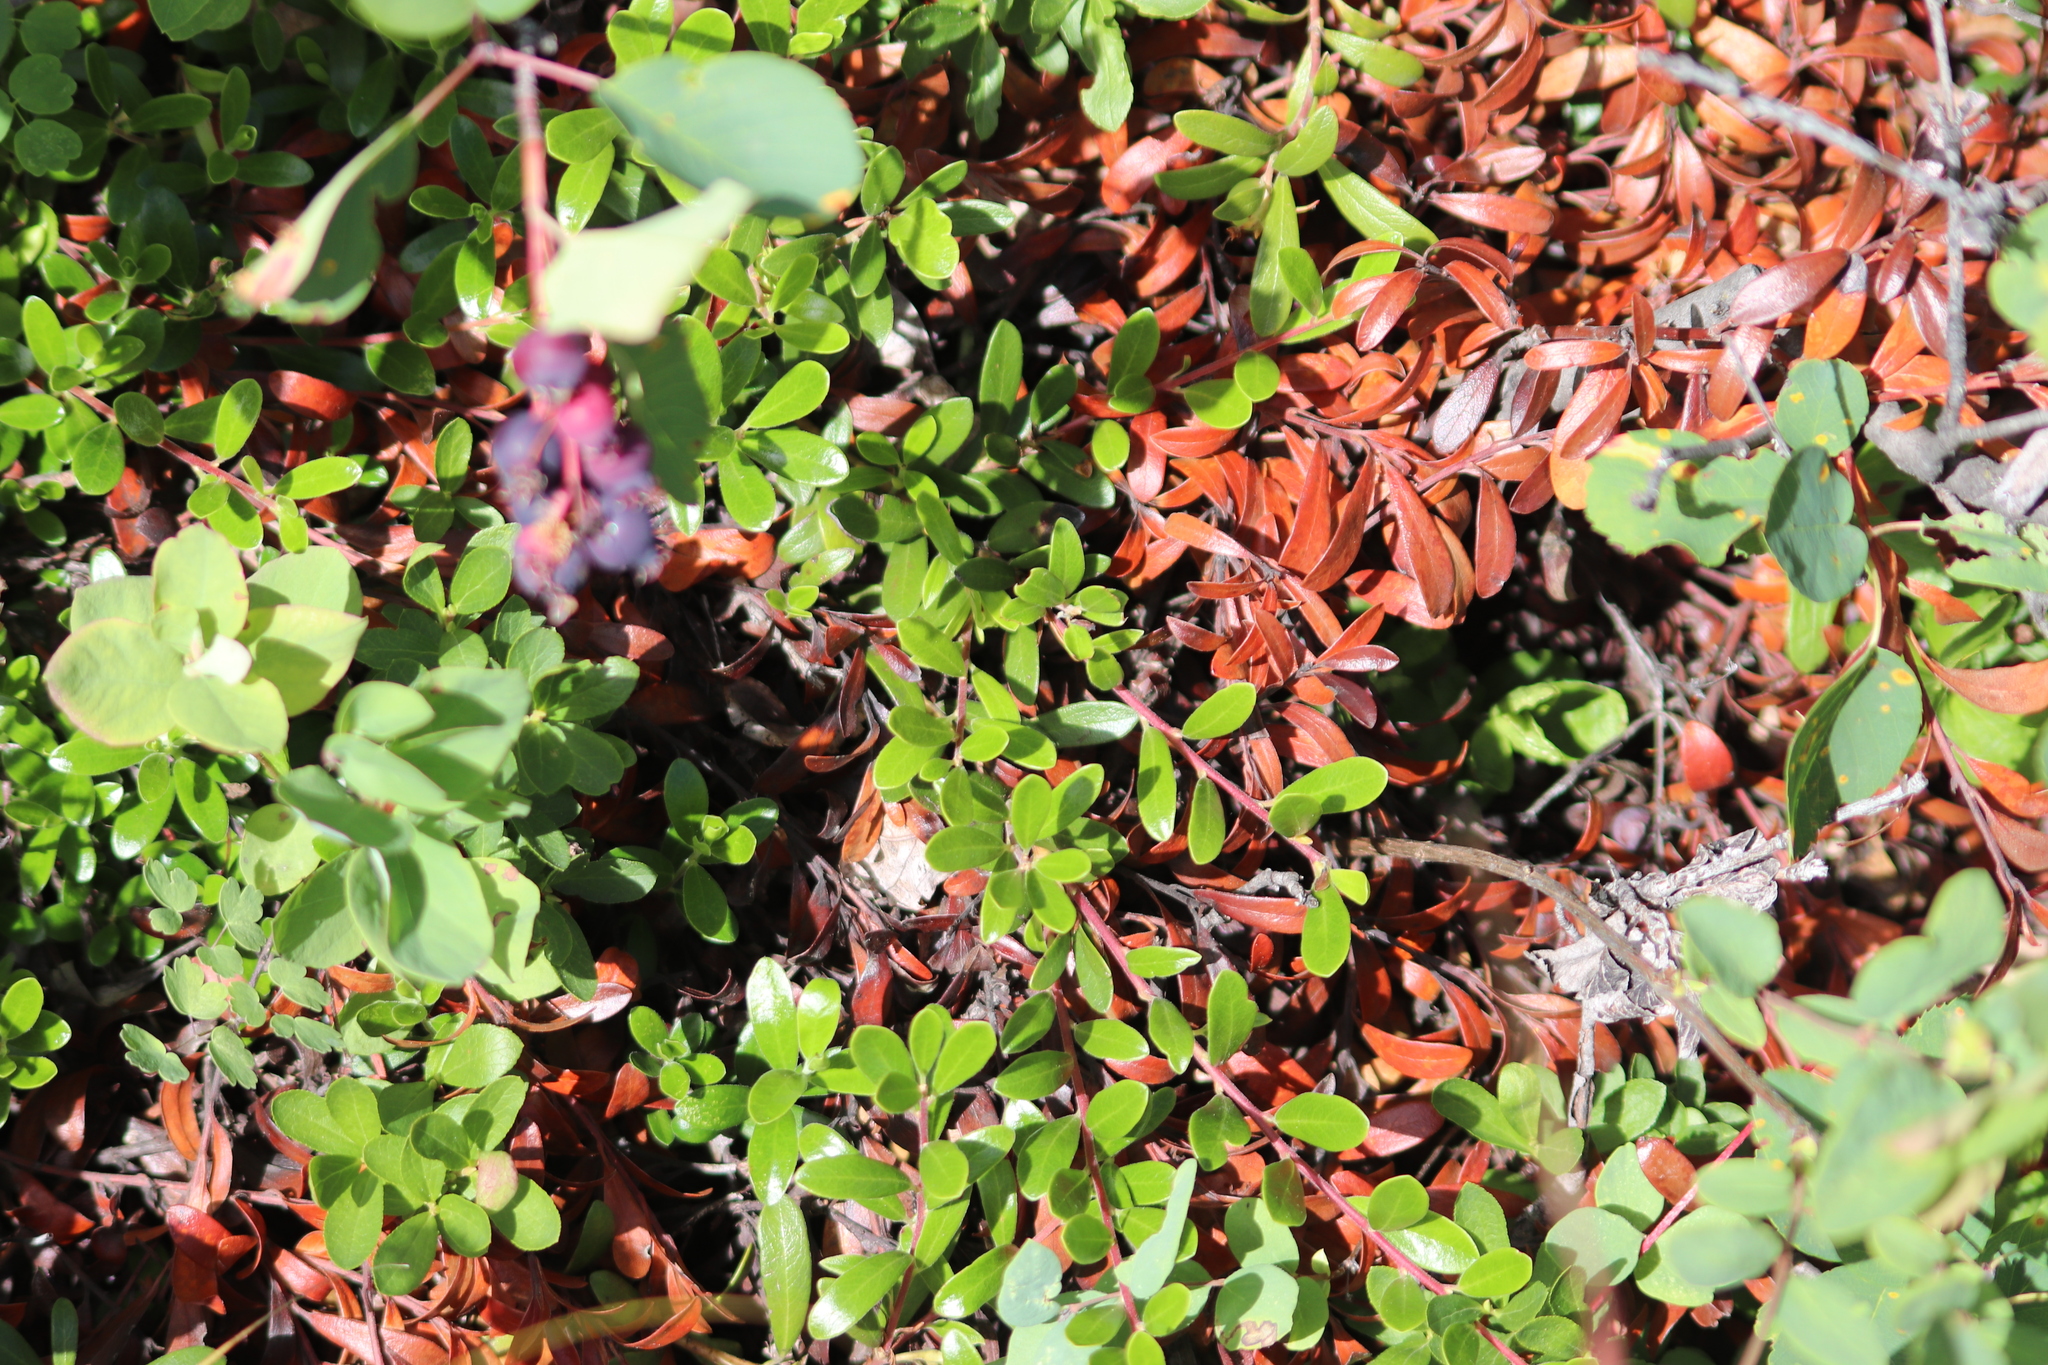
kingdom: Plantae
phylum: Tracheophyta
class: Magnoliopsida
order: Ericales
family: Ericaceae
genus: Arctostaphylos
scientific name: Arctostaphylos uva-ursi
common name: Bearberry
